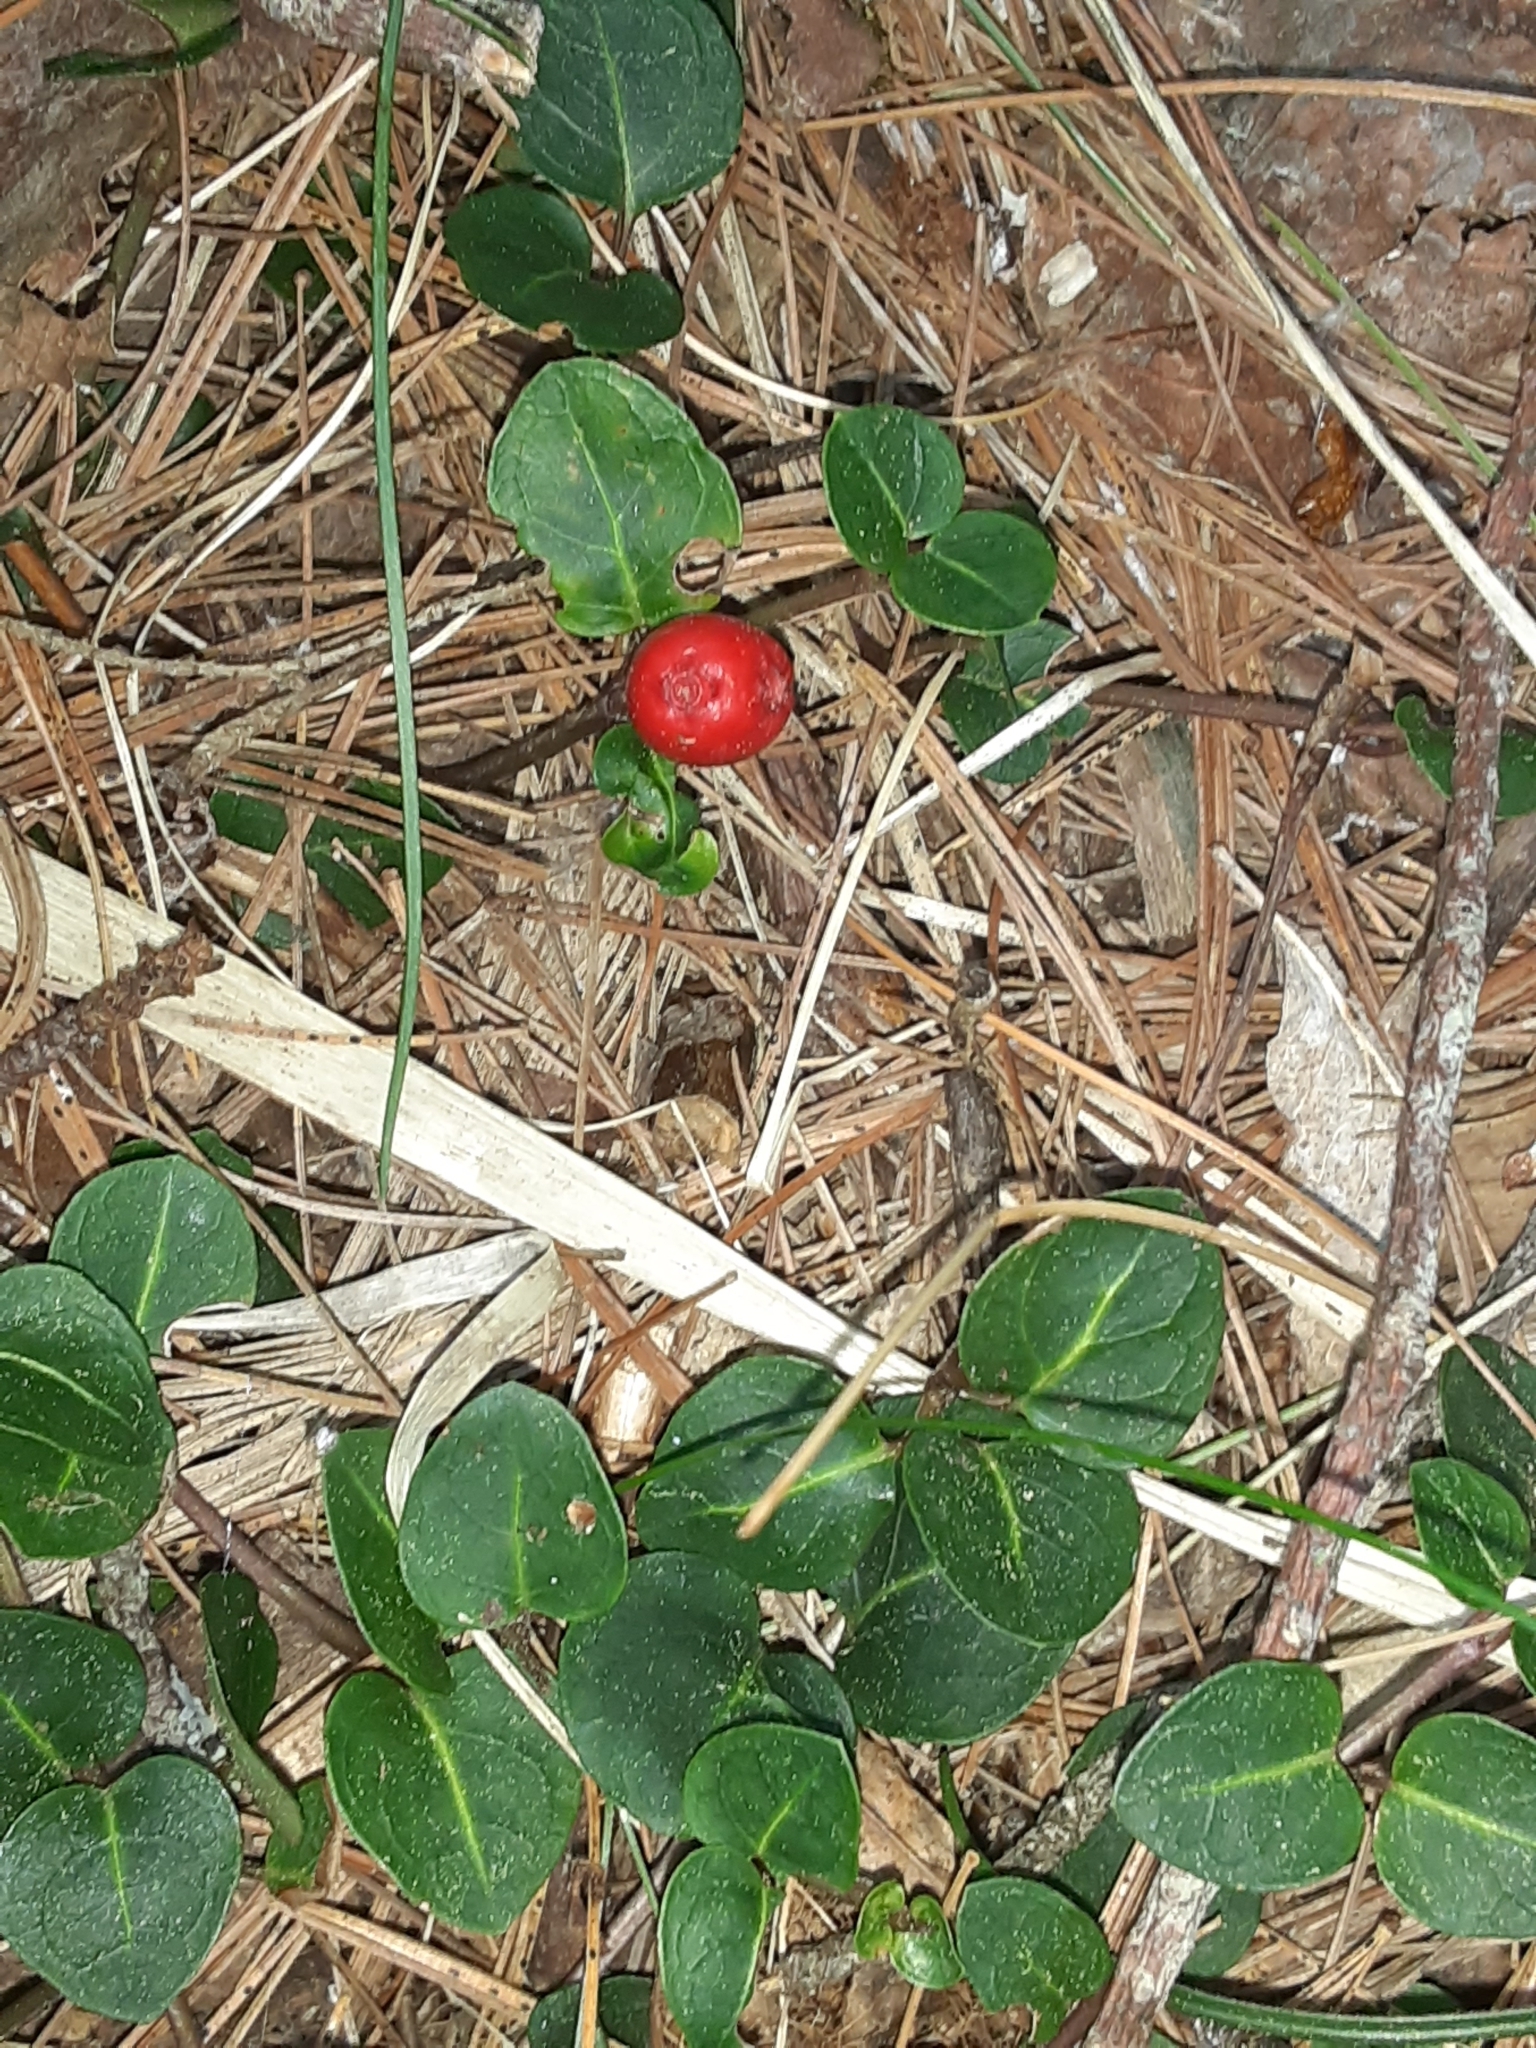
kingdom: Plantae
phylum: Tracheophyta
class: Magnoliopsida
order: Gentianales
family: Rubiaceae
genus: Mitchella
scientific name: Mitchella repens
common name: Partridge-berry
